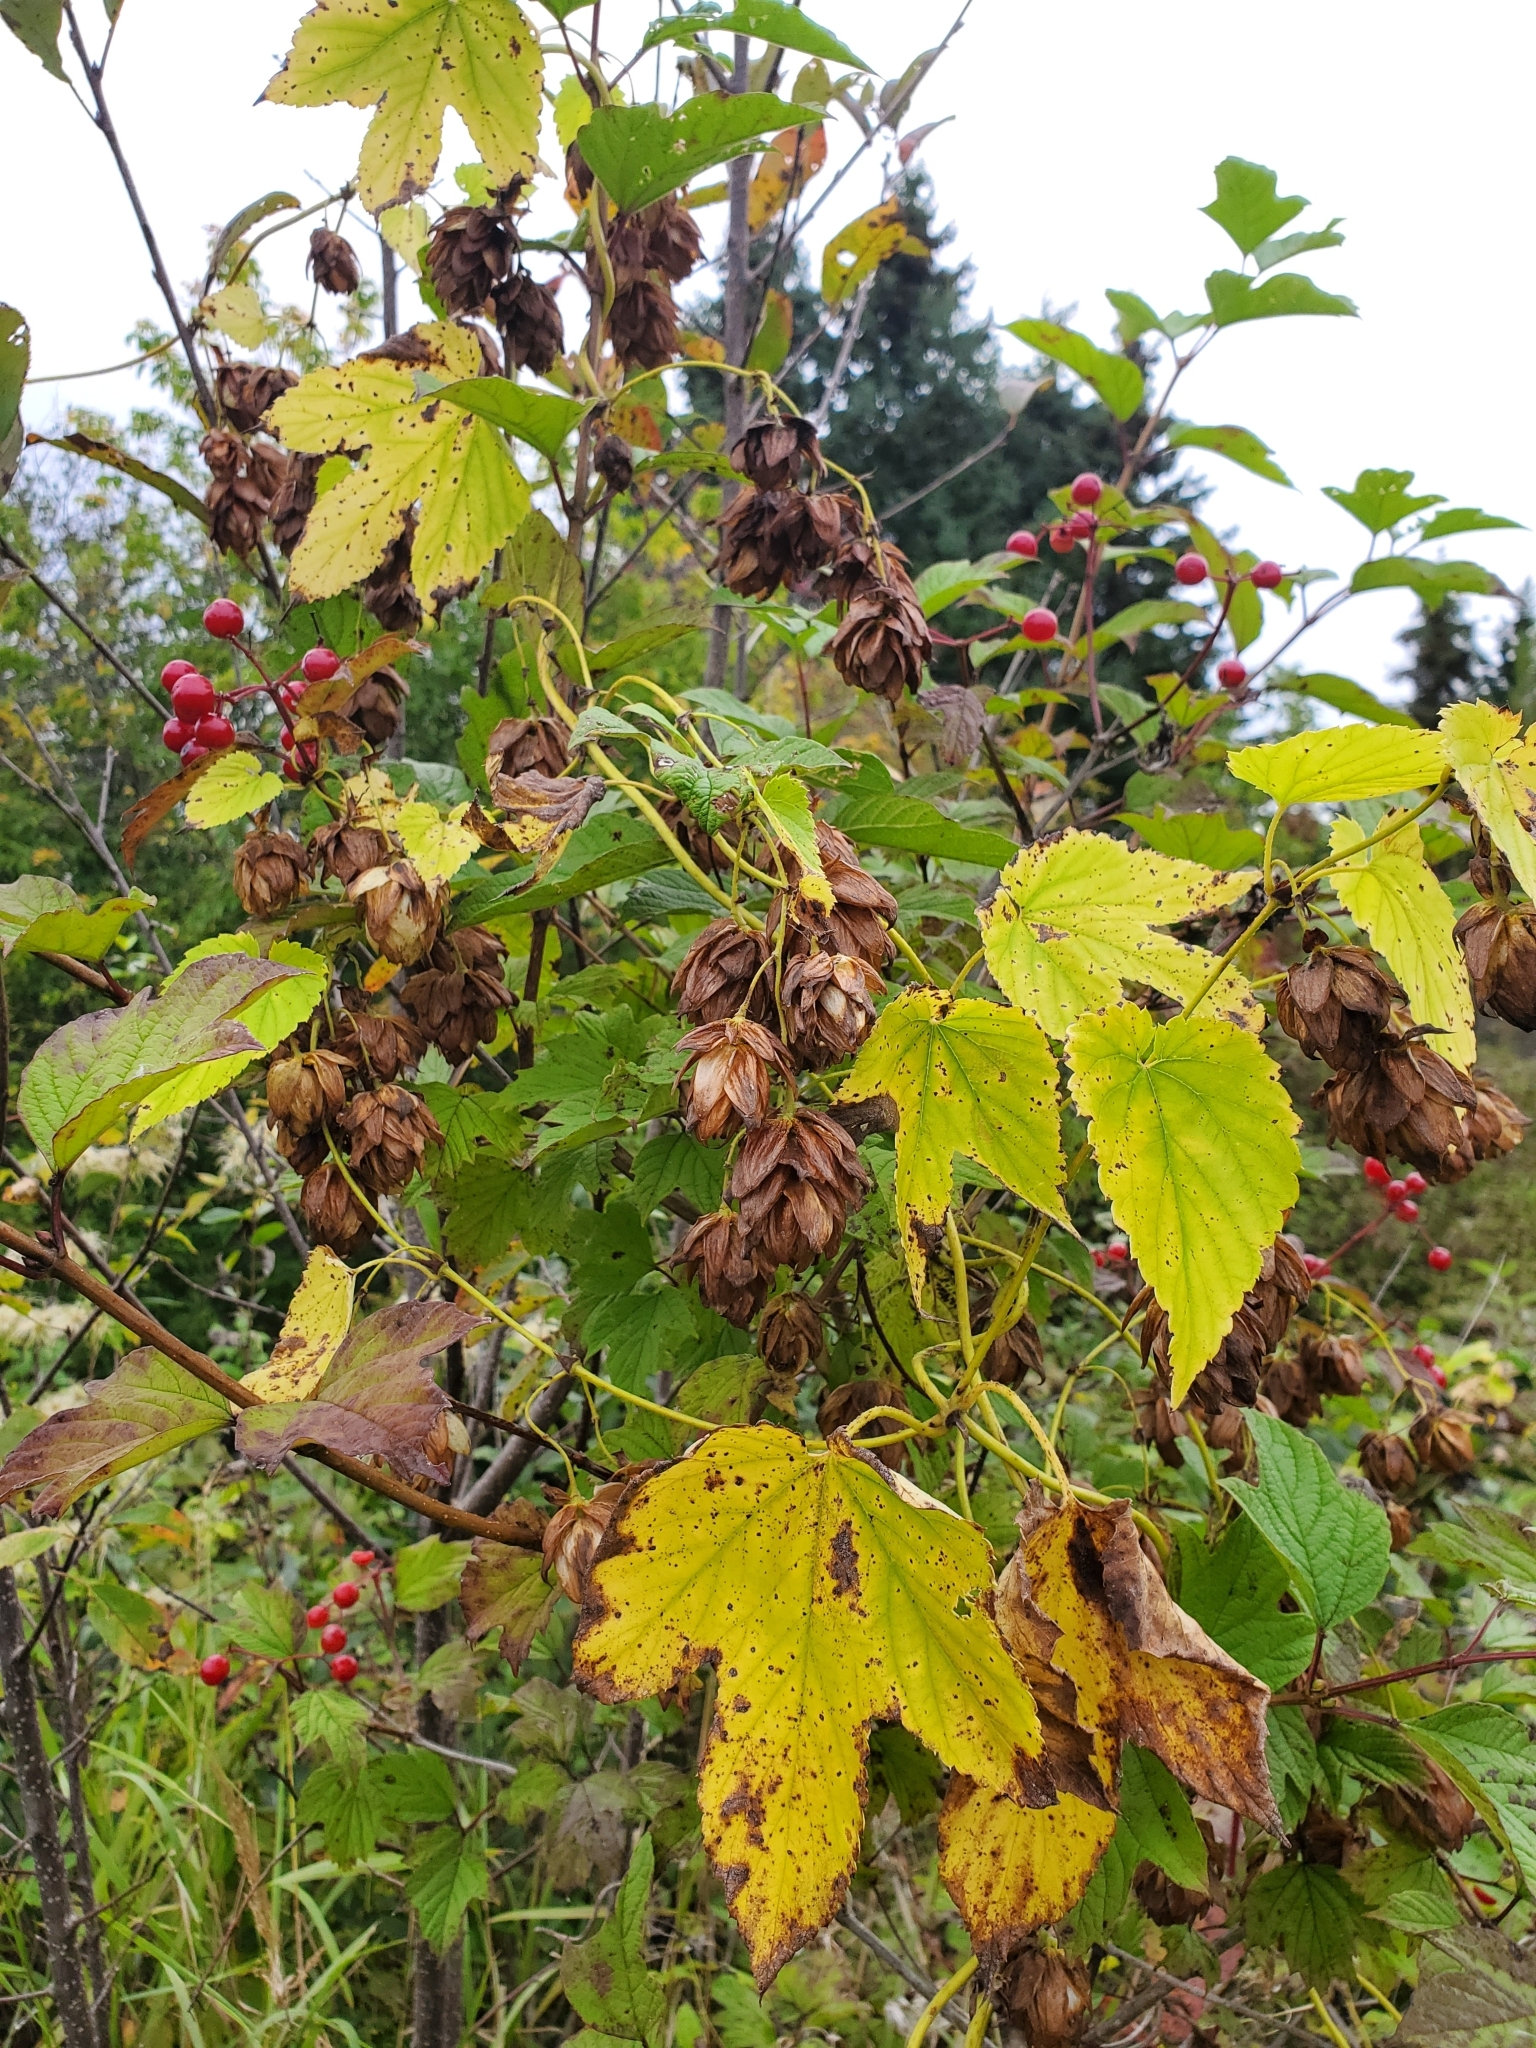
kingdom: Plantae
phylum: Tracheophyta
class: Magnoliopsida
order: Rosales
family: Cannabaceae
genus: Humulus
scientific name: Humulus lupulus
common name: Hop
